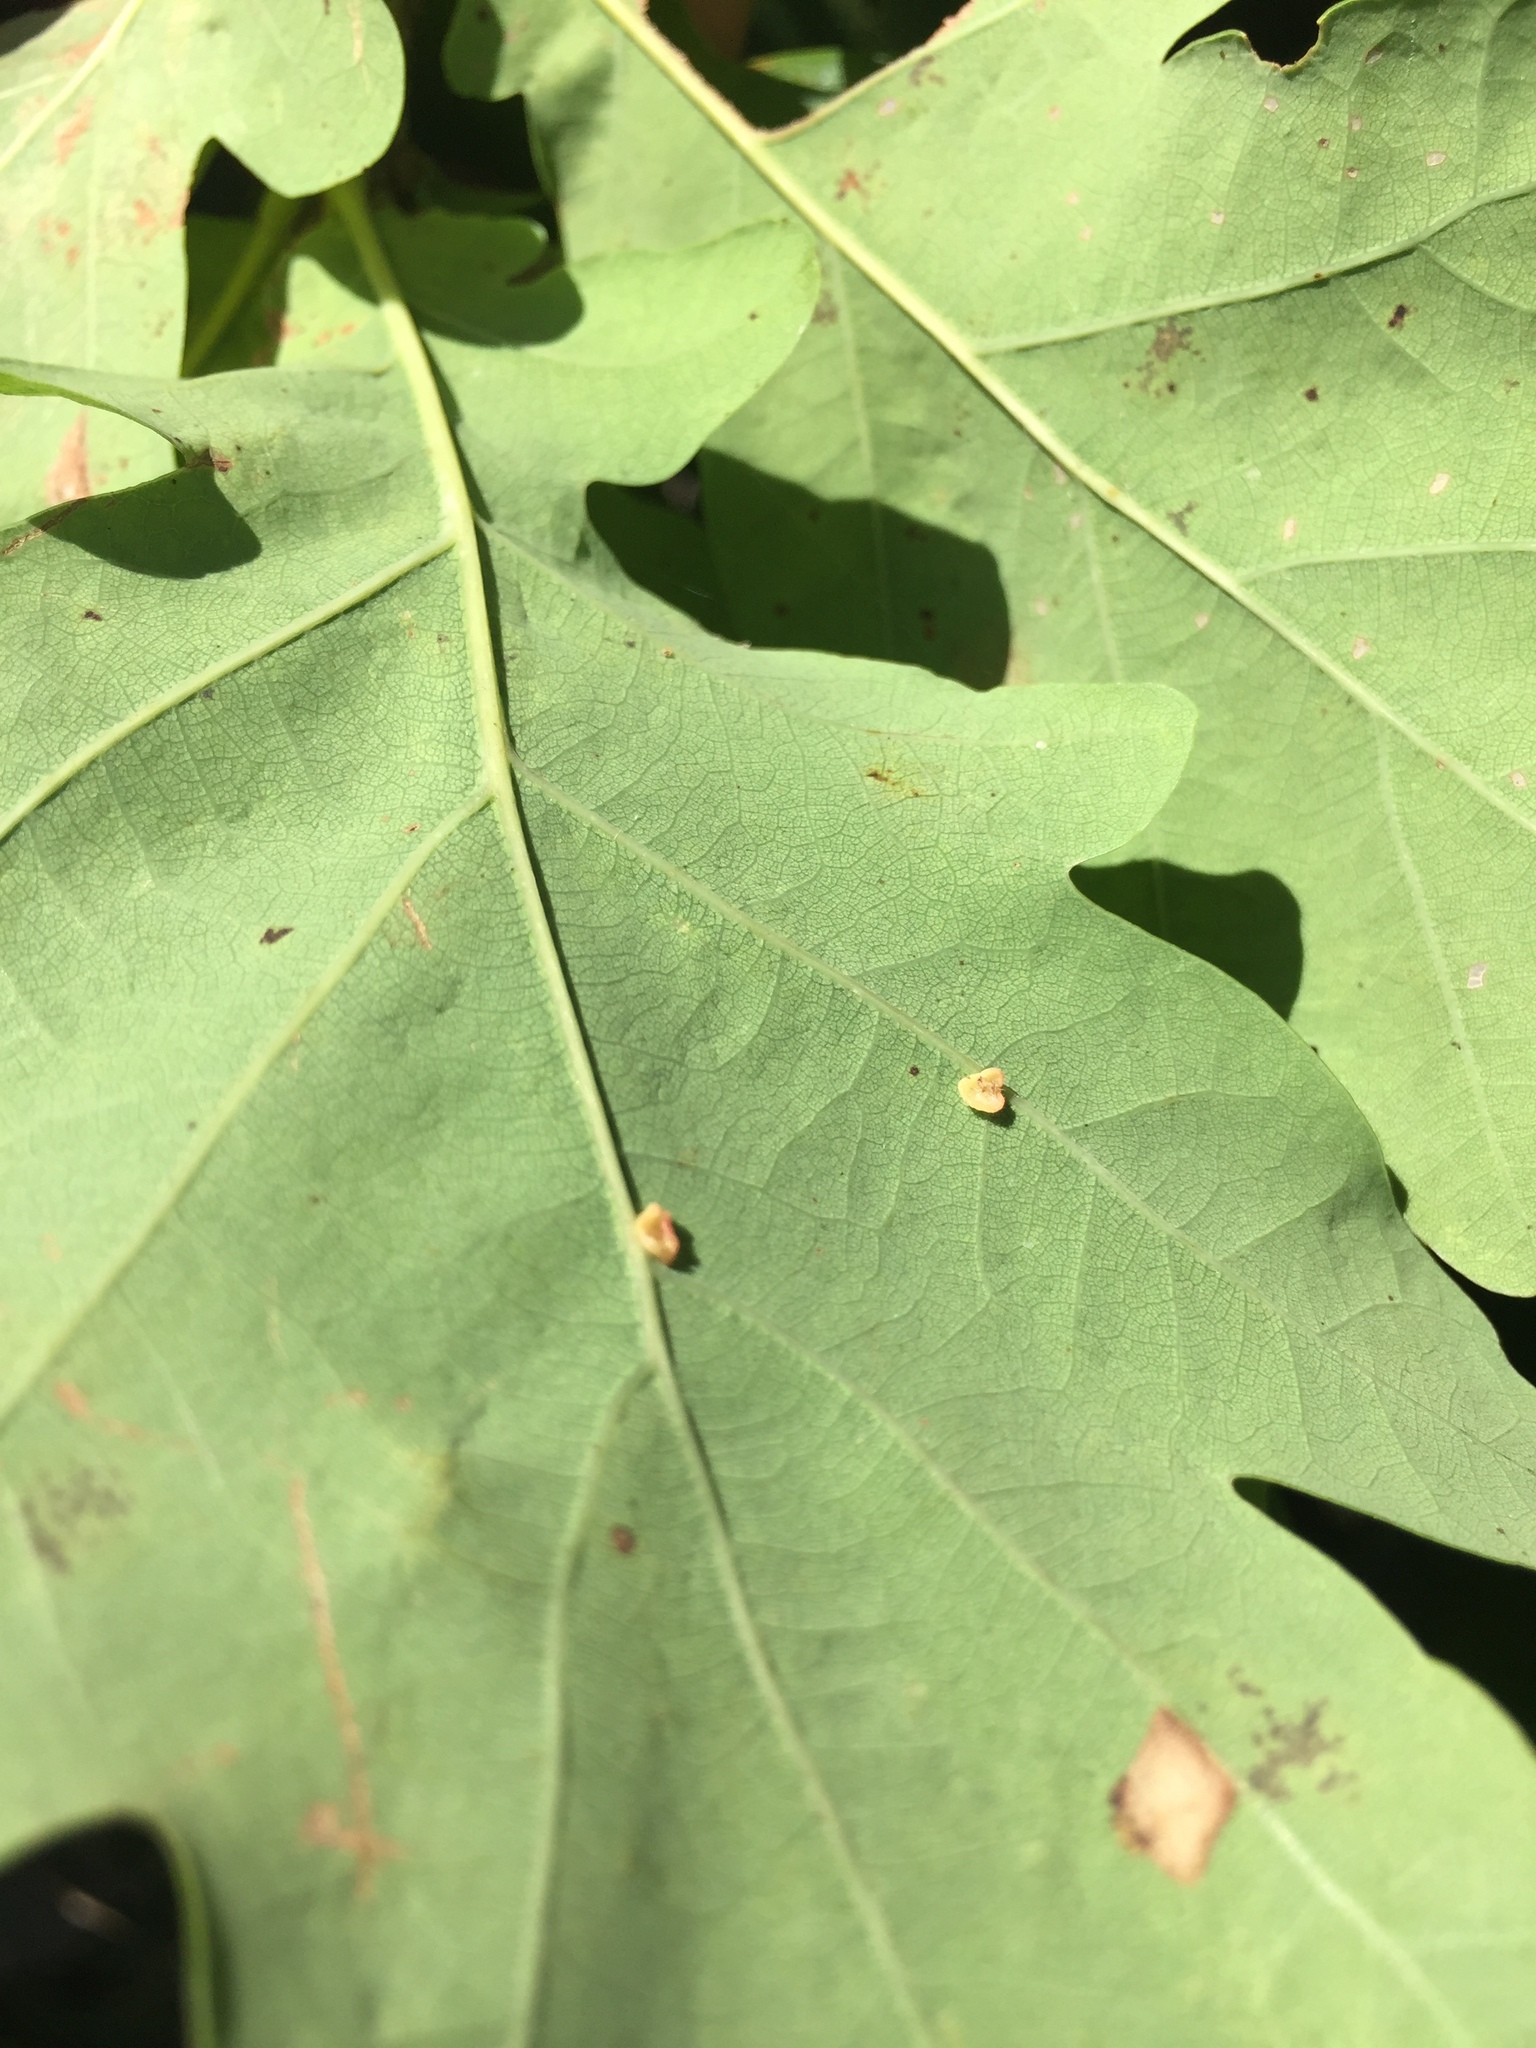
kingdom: Animalia
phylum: Arthropoda
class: Insecta
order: Hymenoptera
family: Cynipidae
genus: Neuroterus
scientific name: Neuroterus albipes
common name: Smooth spangle gall
